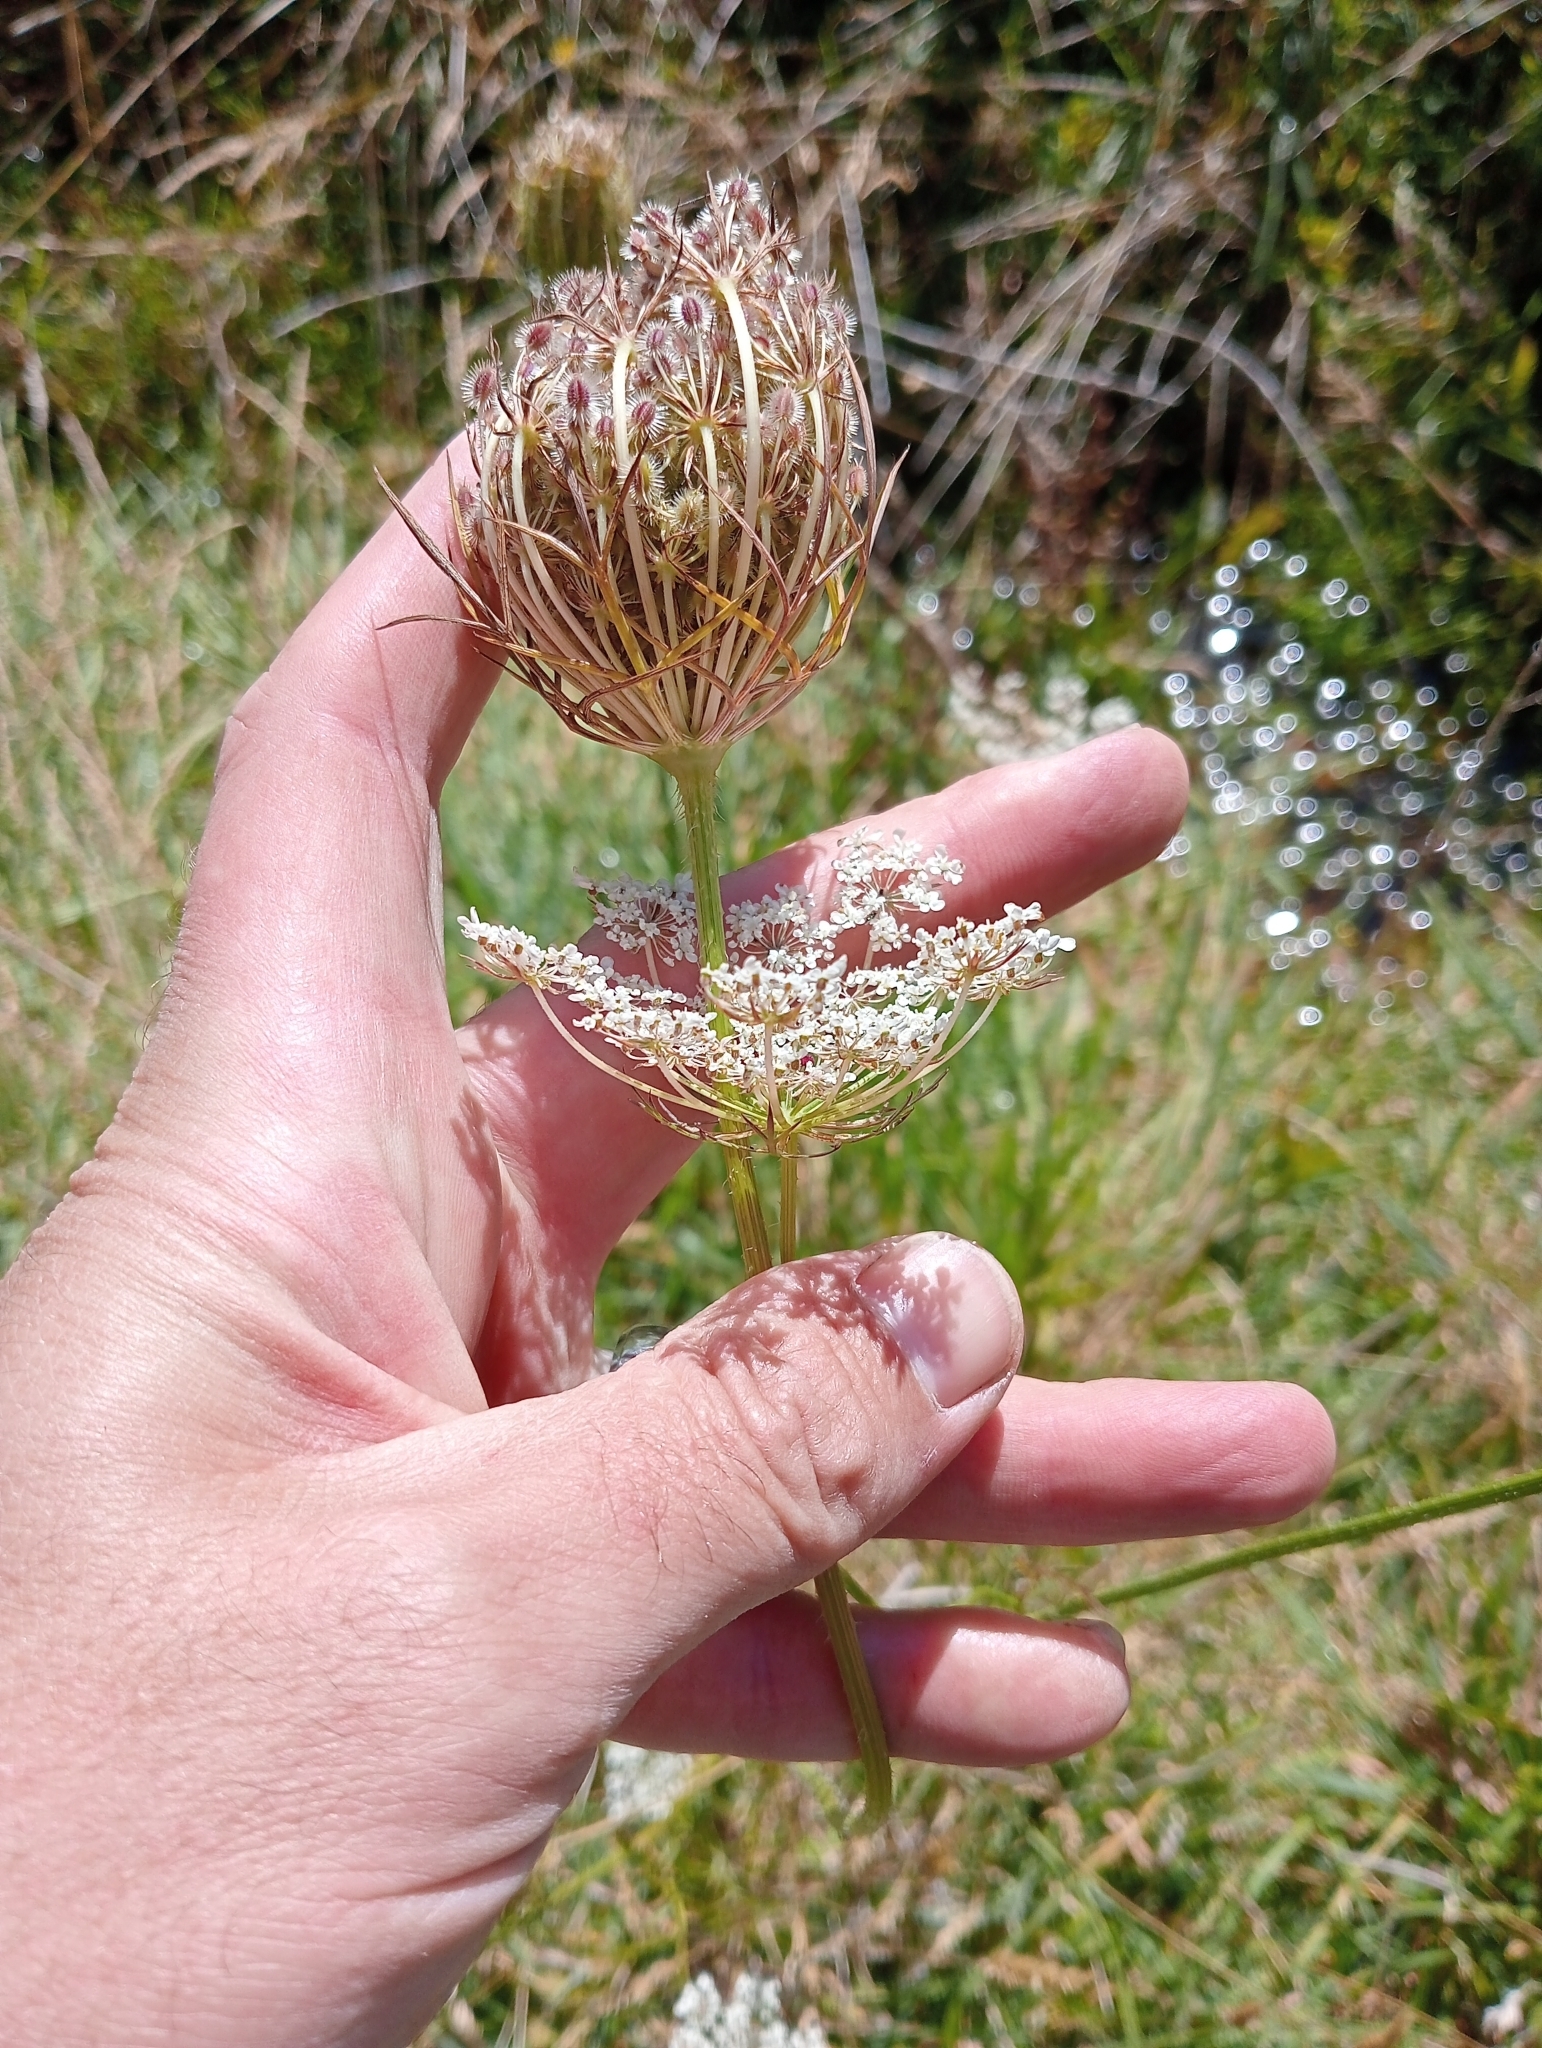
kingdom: Plantae
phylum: Tracheophyta
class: Magnoliopsida
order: Apiales
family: Apiaceae
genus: Daucus
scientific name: Daucus carota
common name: Wild carrot
